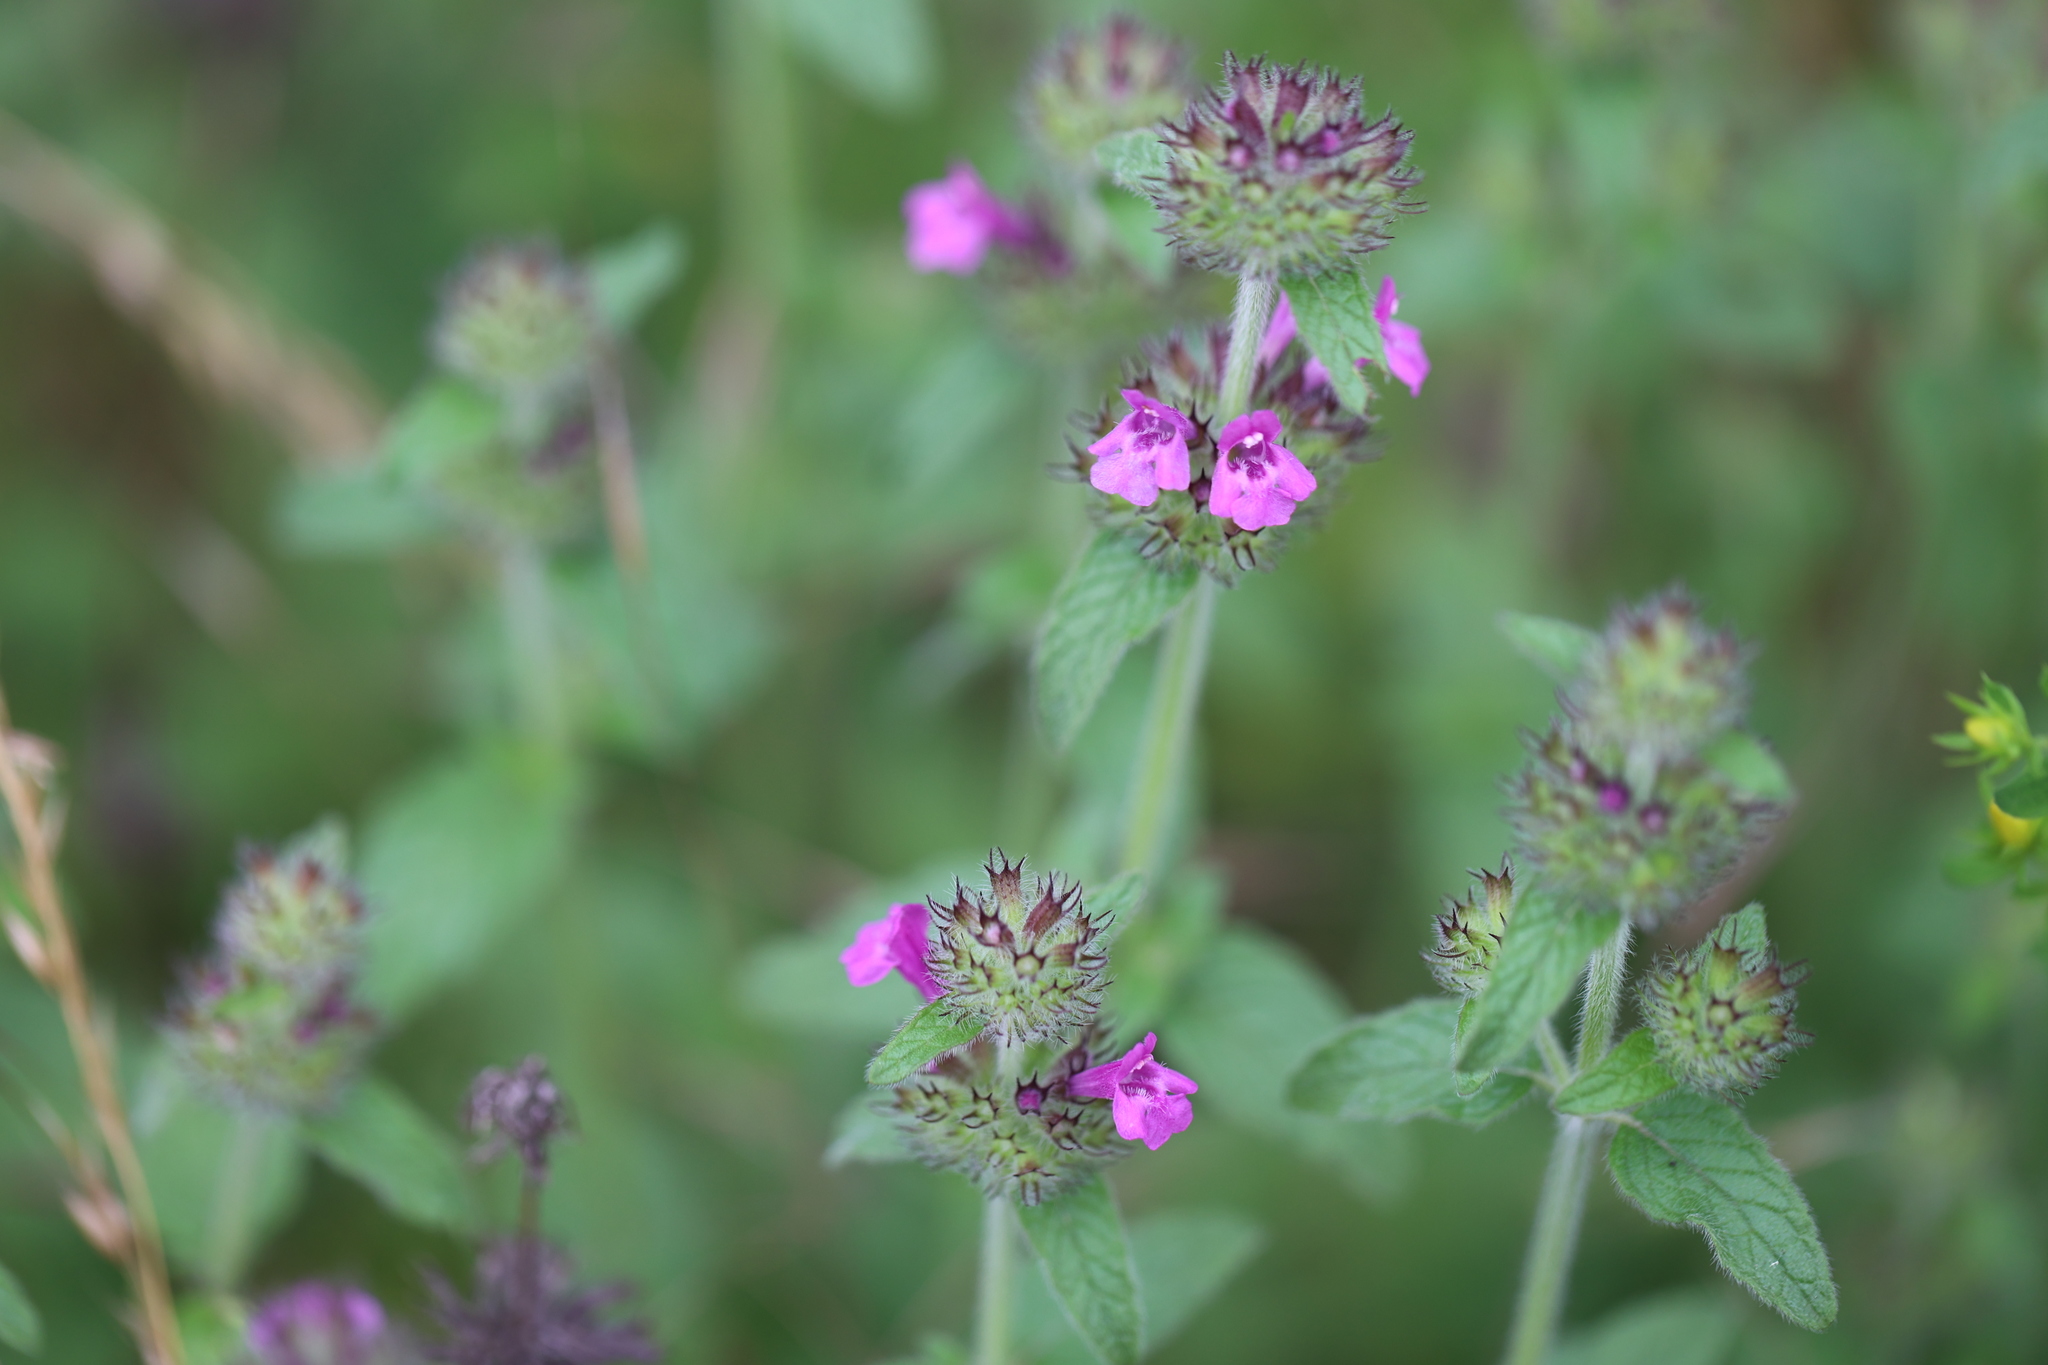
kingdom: Plantae
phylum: Tracheophyta
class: Magnoliopsida
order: Lamiales
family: Lamiaceae
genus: Clinopodium
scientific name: Clinopodium vulgare
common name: Wild basil
